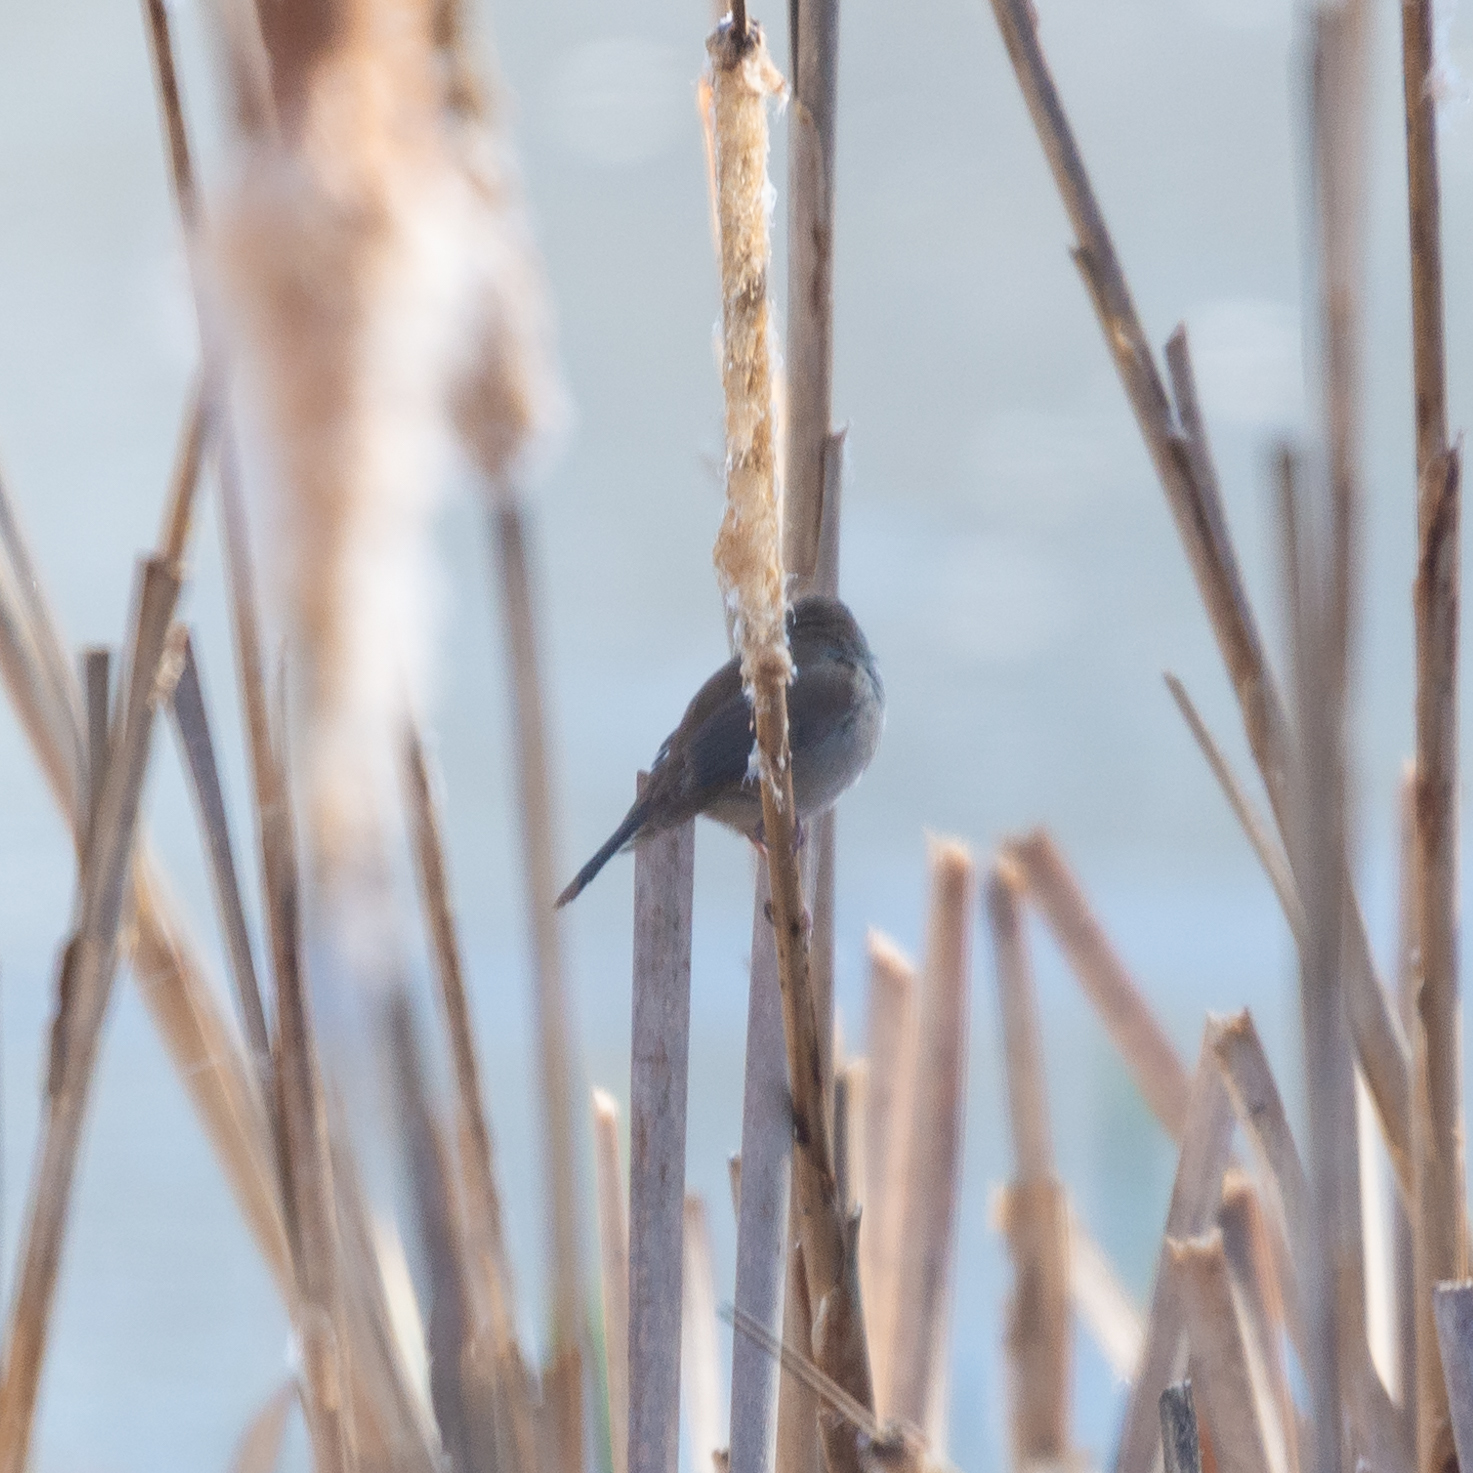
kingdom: Animalia
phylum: Chordata
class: Aves
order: Passeriformes
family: Cettiidae
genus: Cettia
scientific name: Cettia cetti
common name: Cetti's warbler
